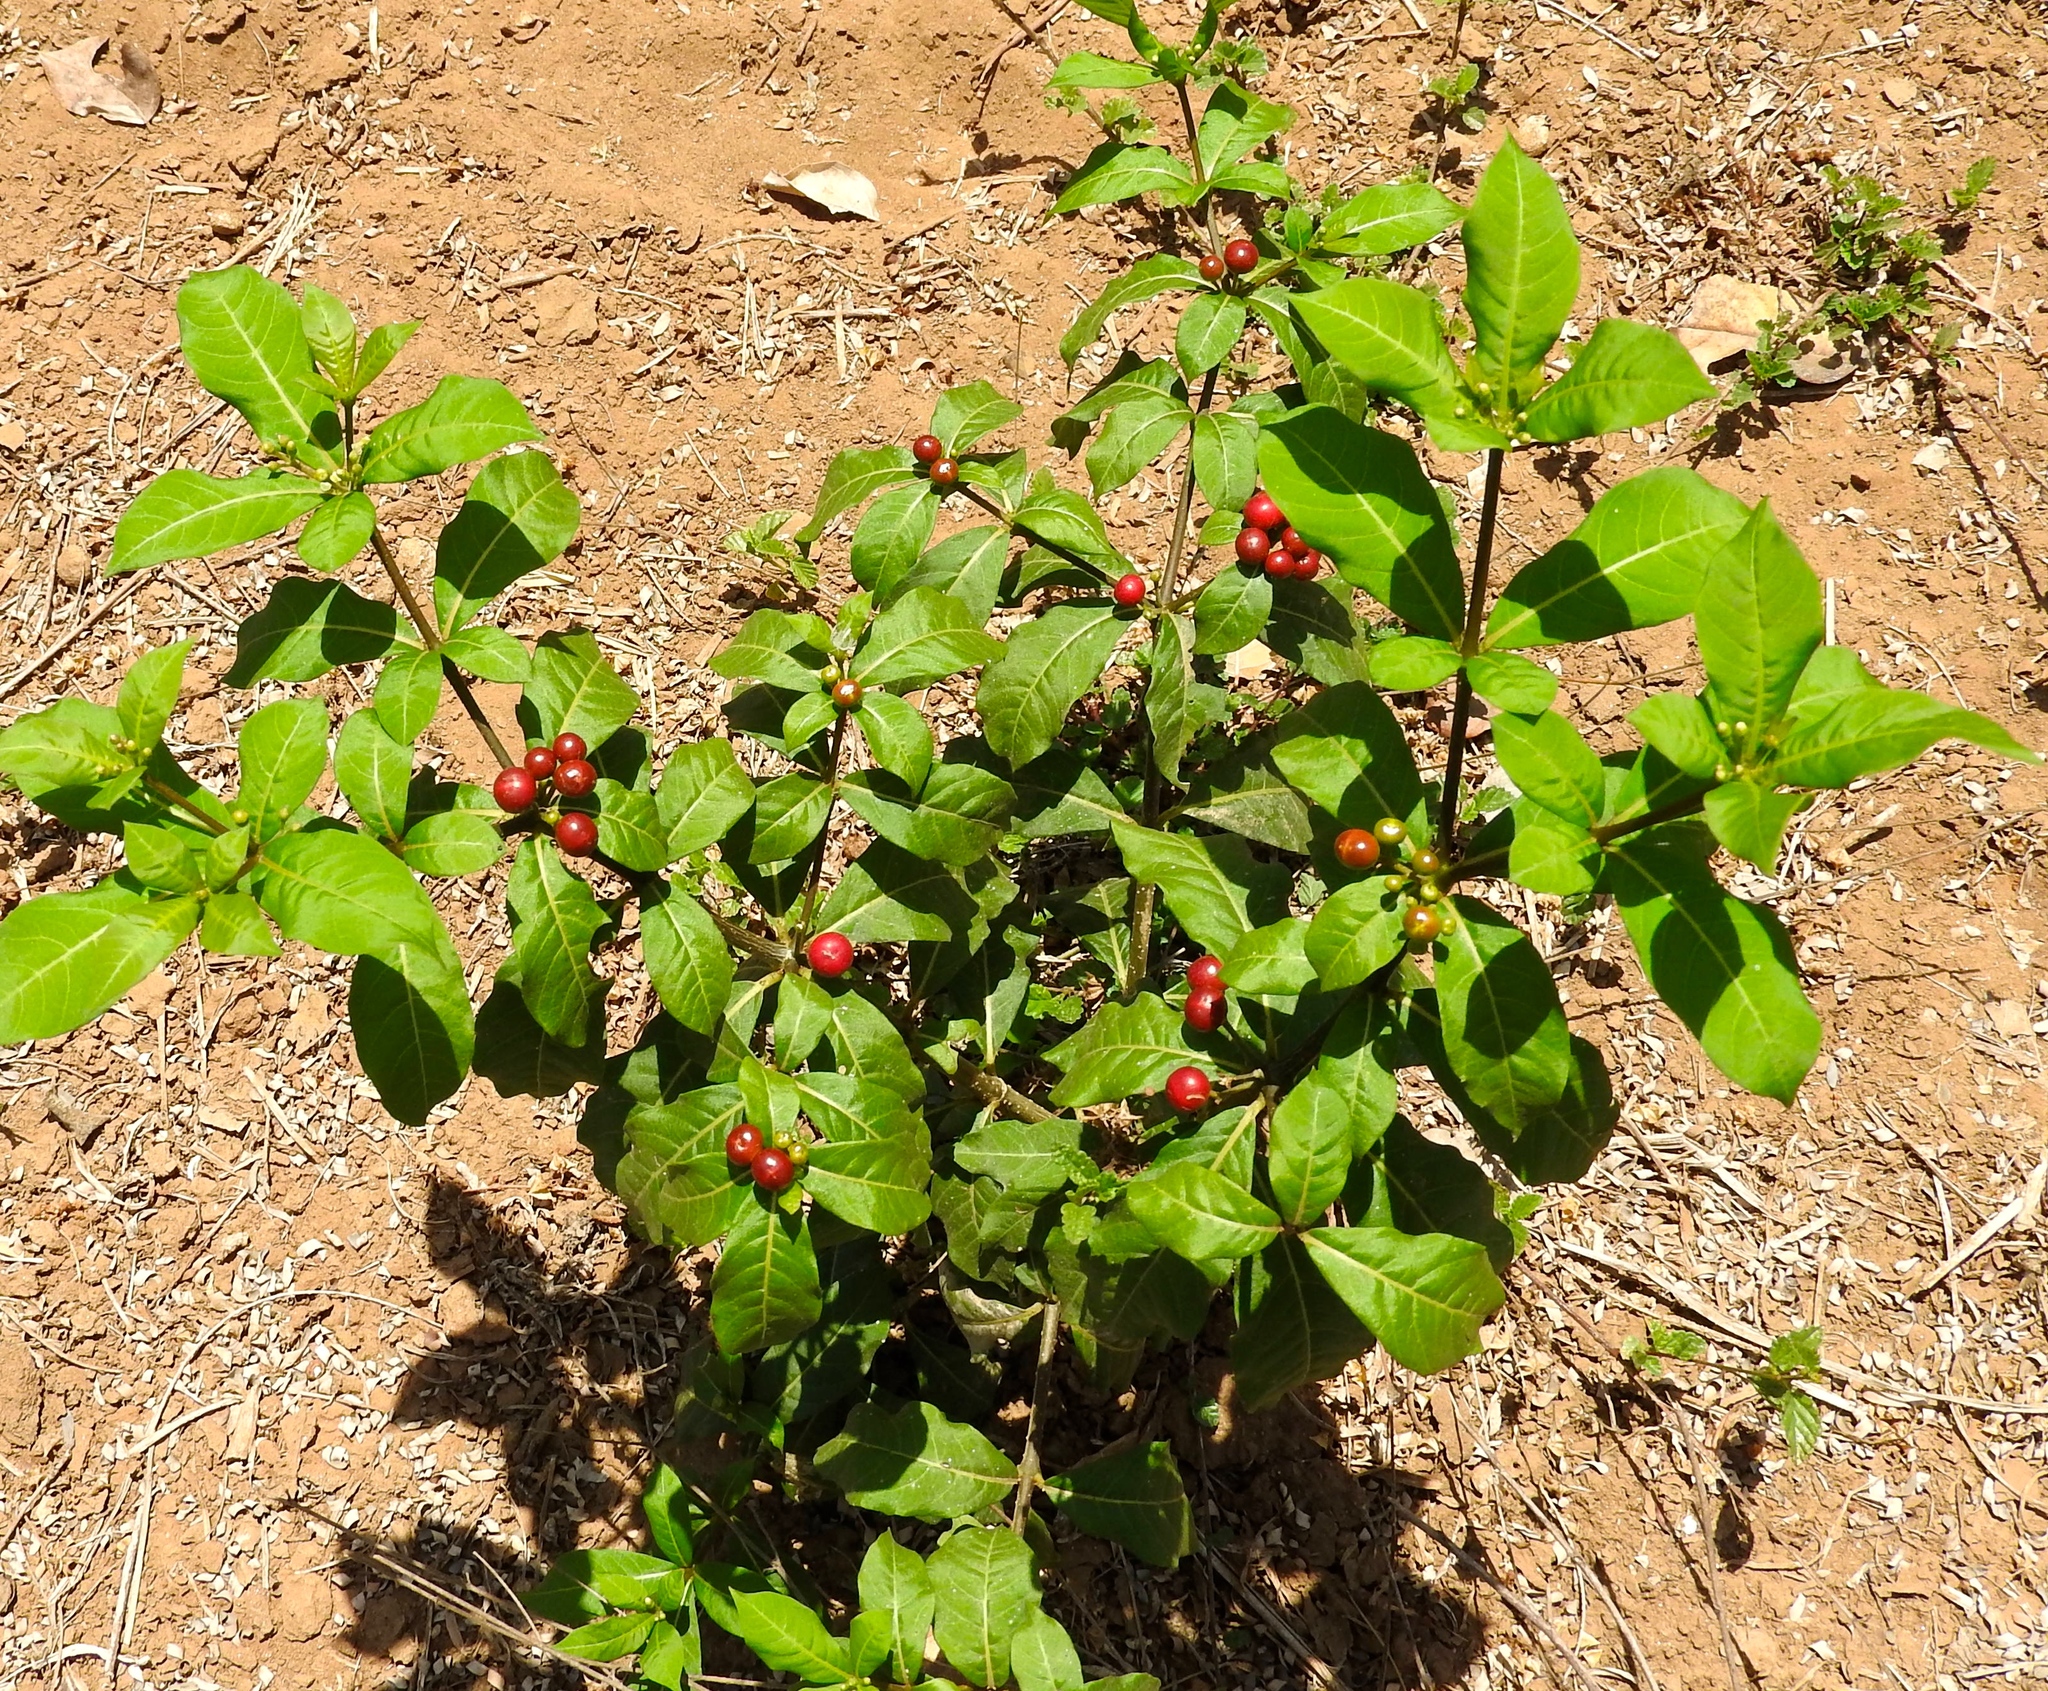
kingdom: Plantae
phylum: Tracheophyta
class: Magnoliopsida
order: Gentianales
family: Apocynaceae
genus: Rauvolfia
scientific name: Rauvolfia tetraphylla
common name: Four-leaf devil-pepper
